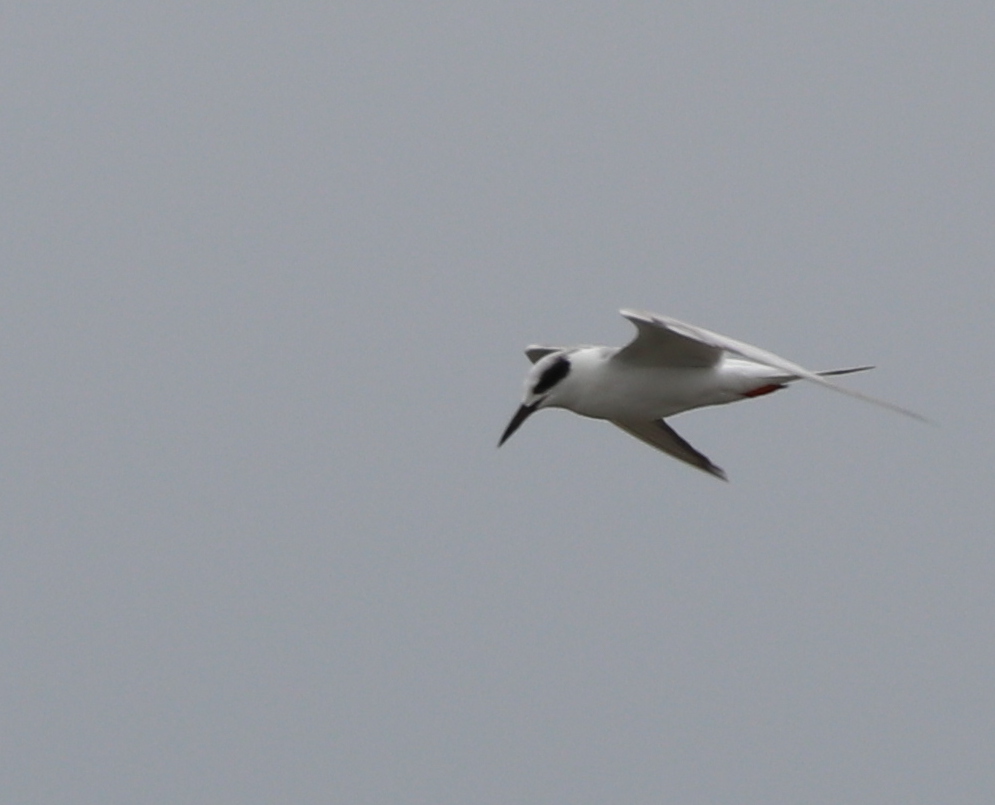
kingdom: Animalia
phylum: Chordata
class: Aves
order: Charadriiformes
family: Laridae
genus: Sterna
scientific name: Sterna forsteri
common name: Forster's tern
